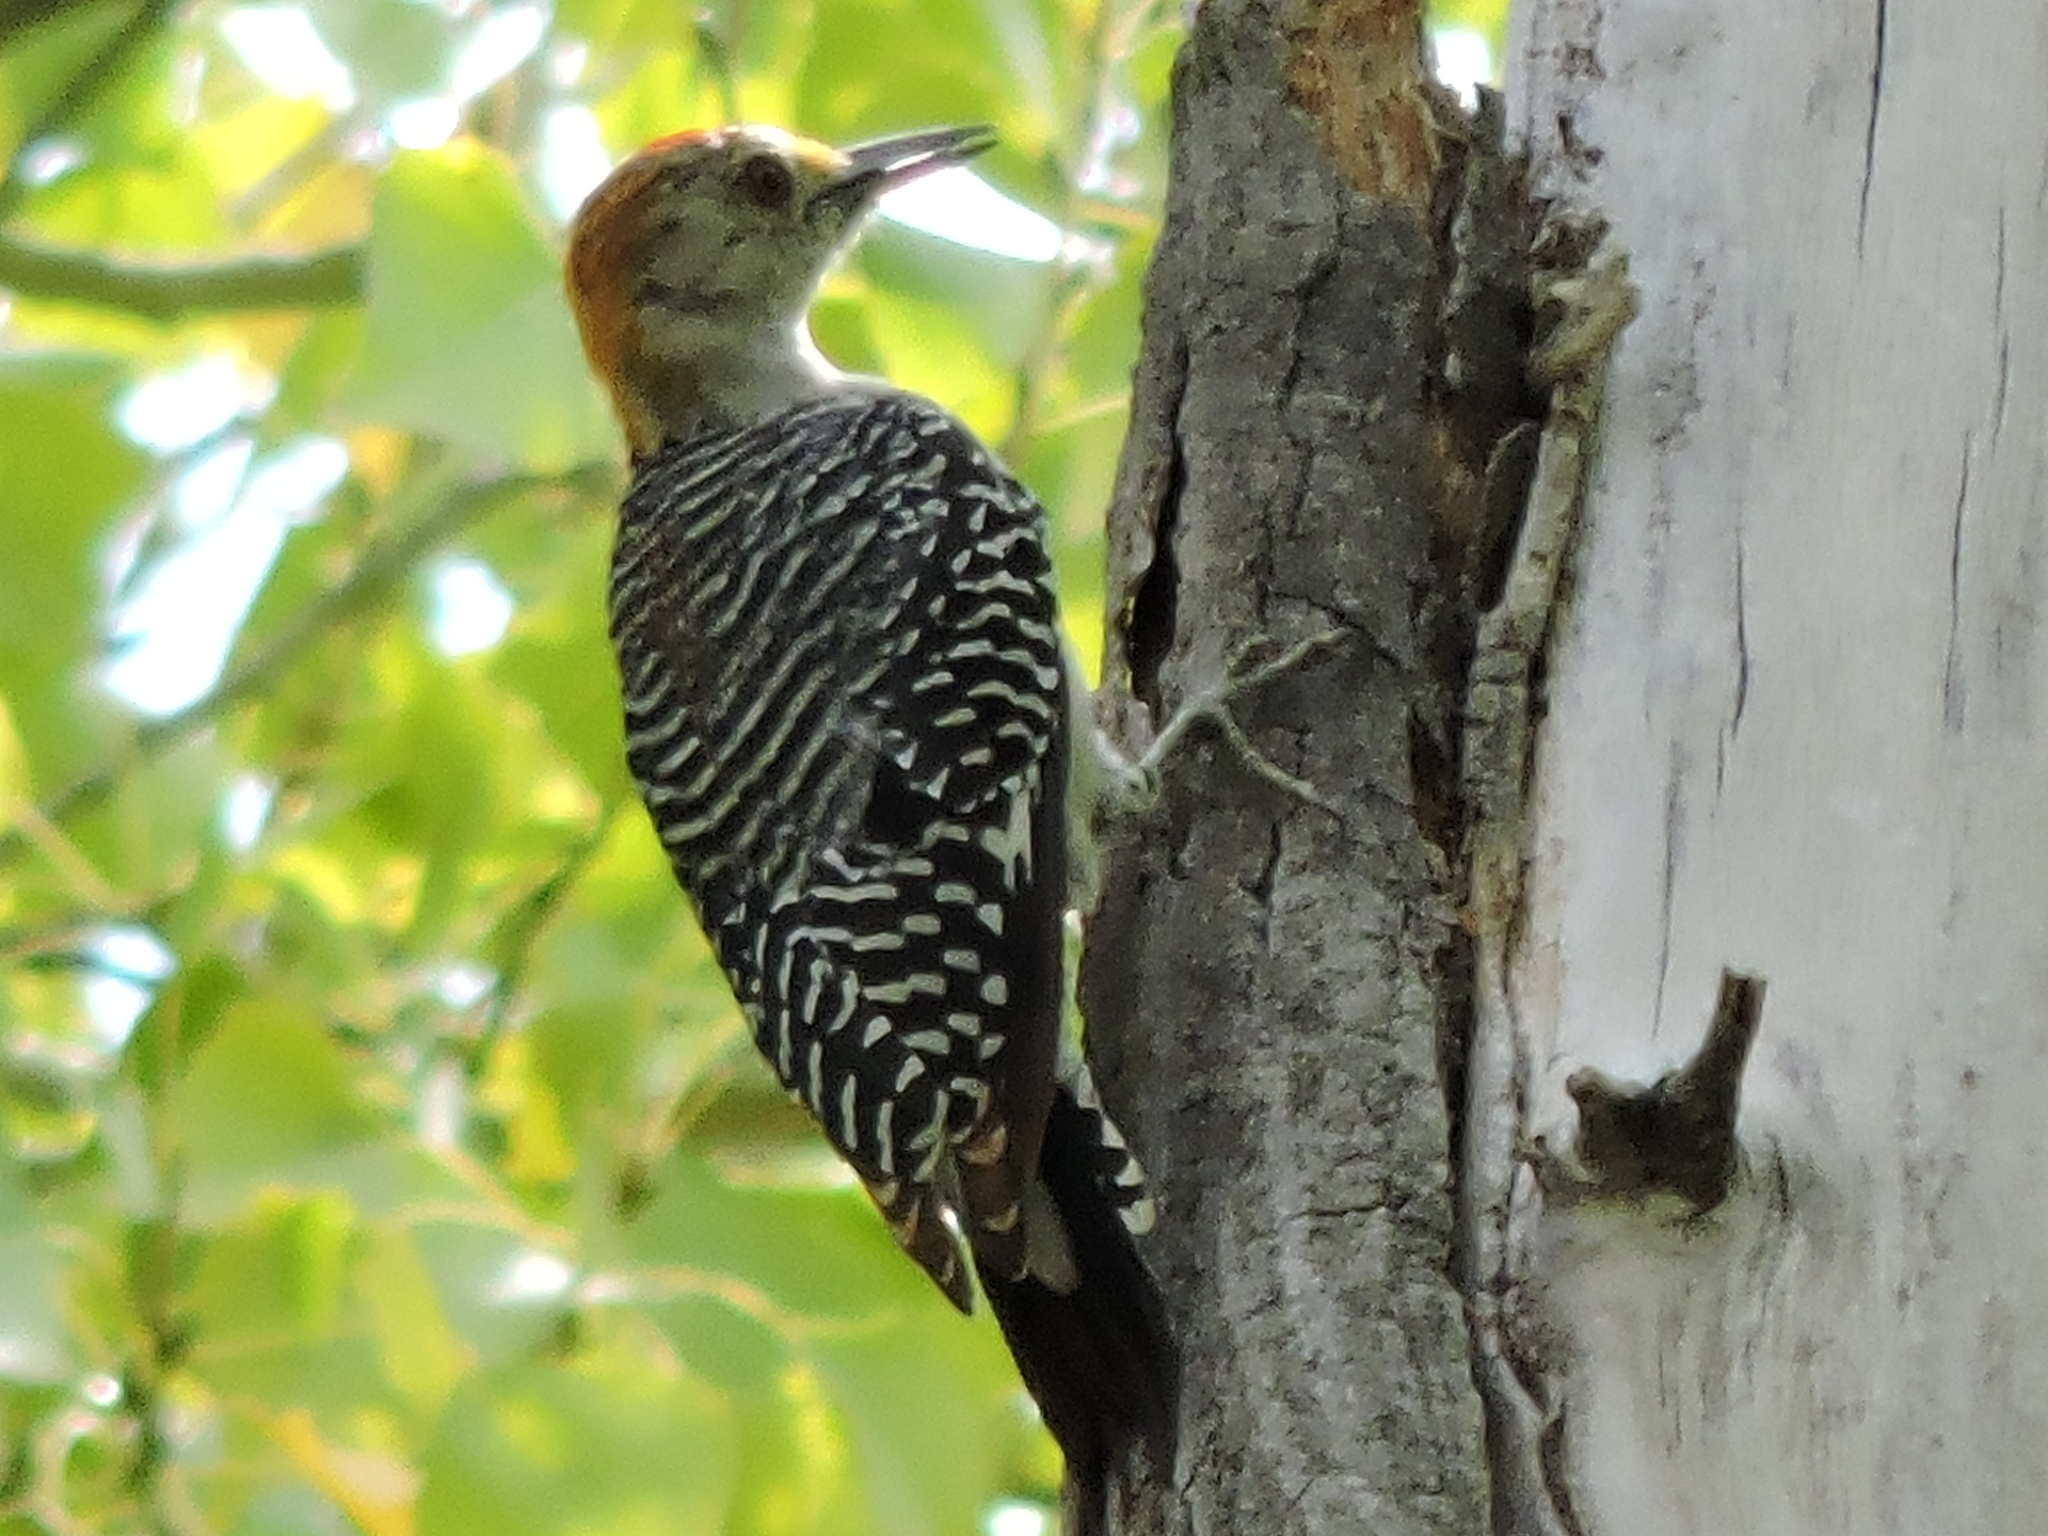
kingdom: Animalia
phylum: Chordata
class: Aves
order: Piciformes
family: Picidae
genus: Melanerpes
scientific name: Melanerpes aurifrons
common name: Golden-fronted woodpecker
